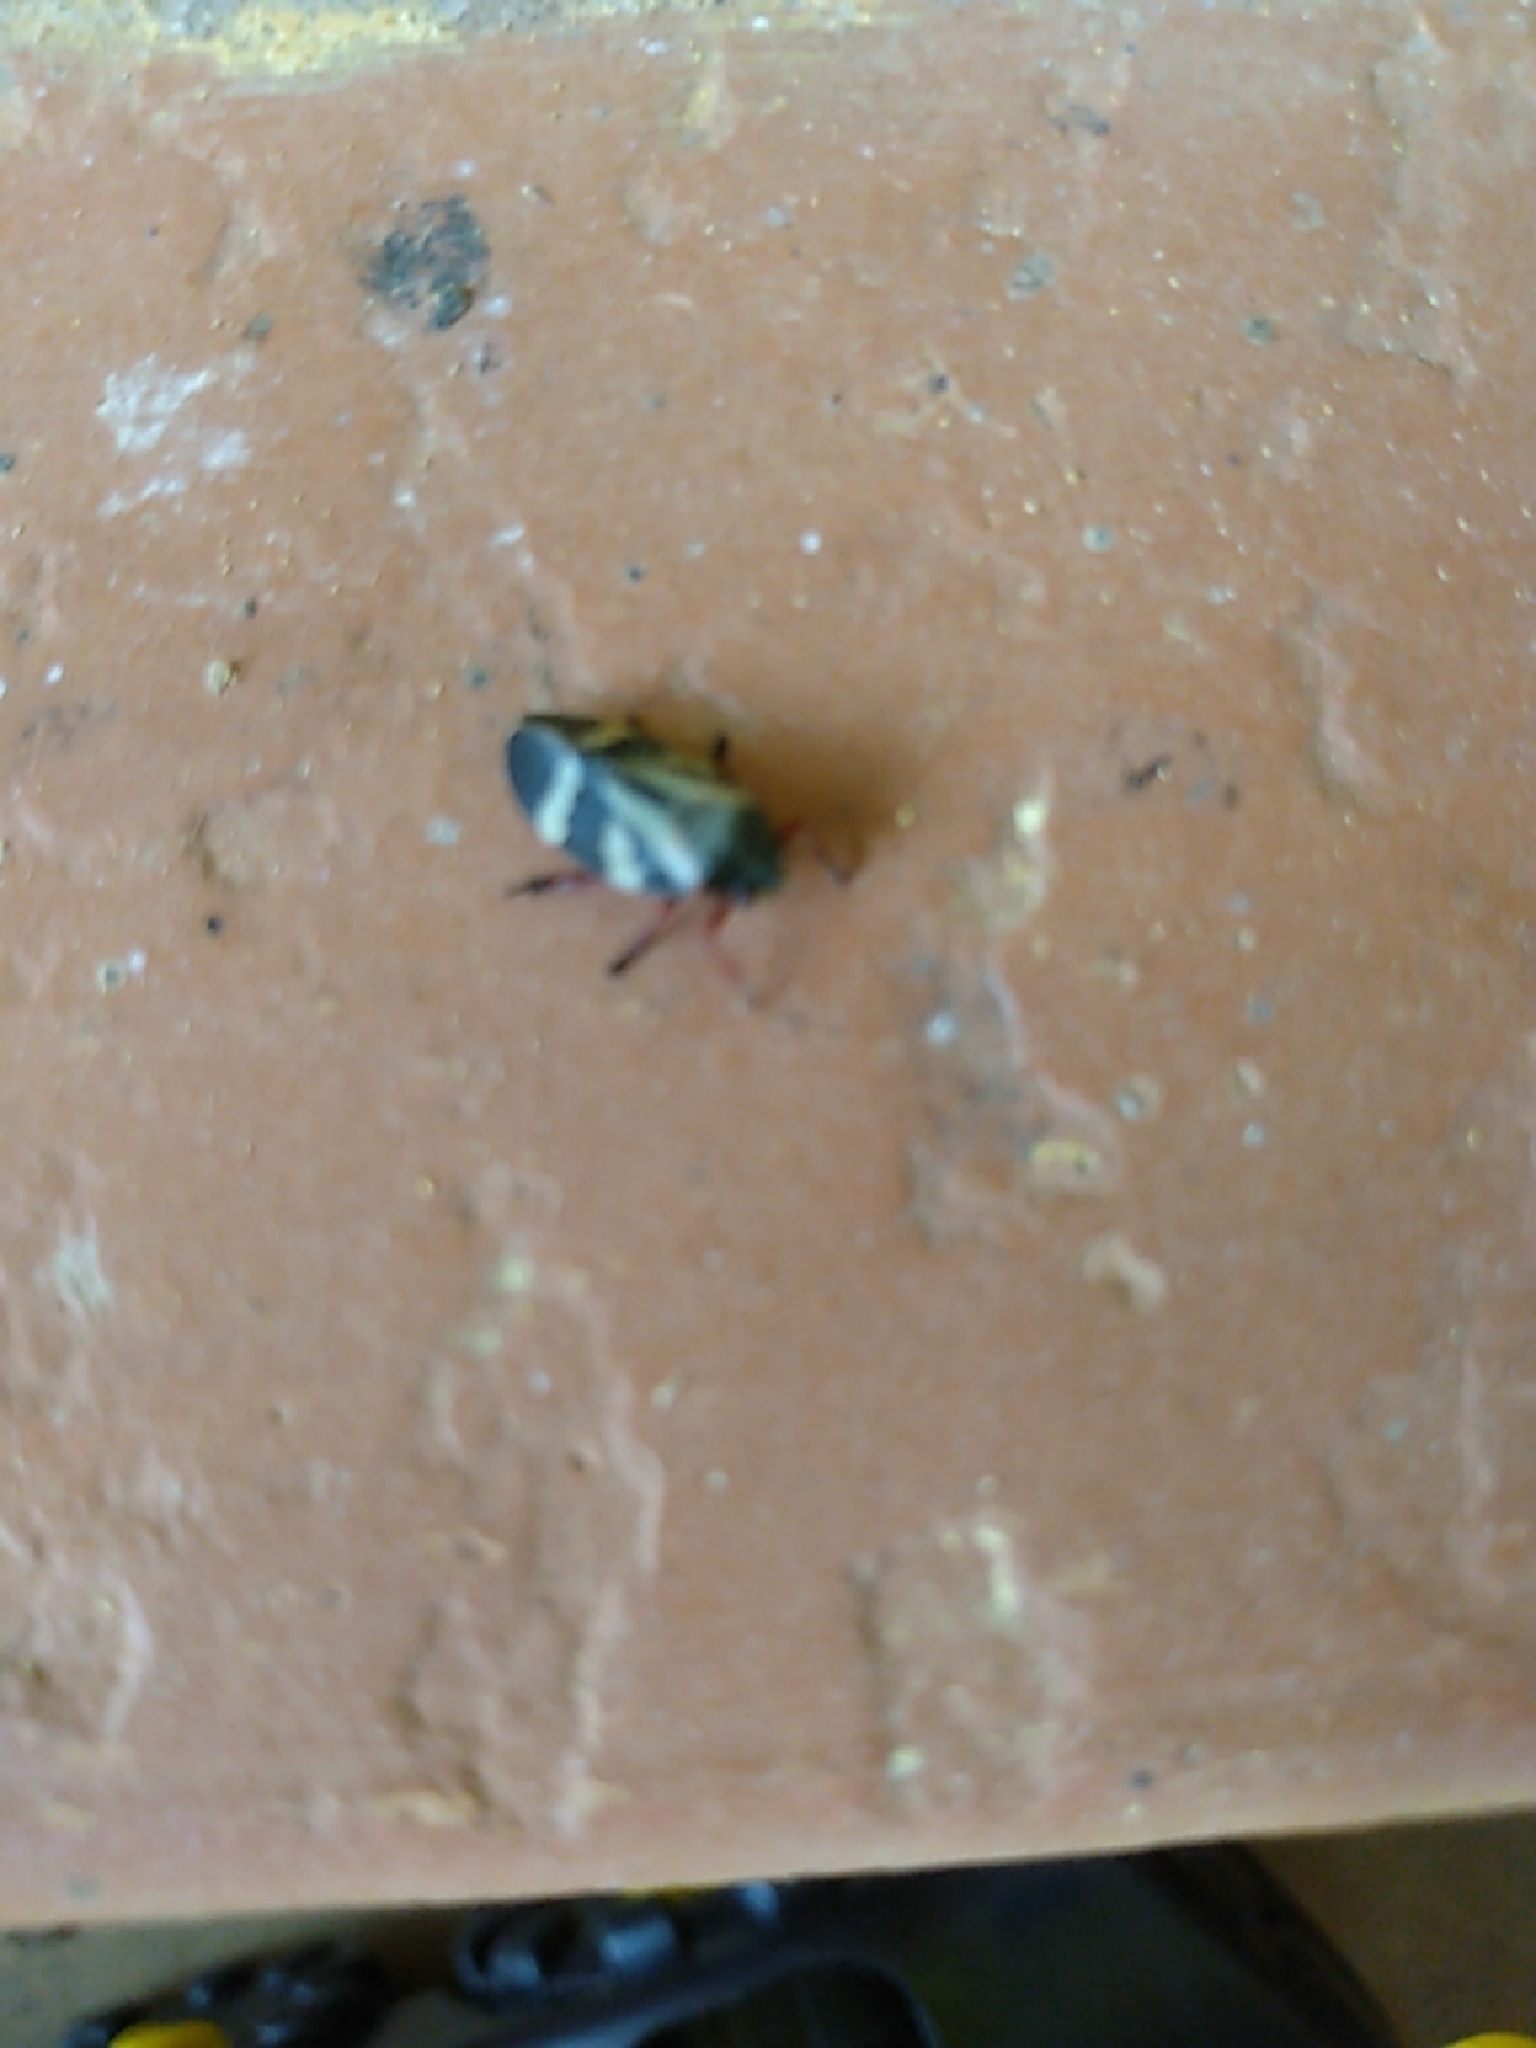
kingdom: Animalia
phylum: Arthropoda
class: Insecta
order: Hemiptera
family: Cercopidae
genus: Deois
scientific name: Deois flavopicta
